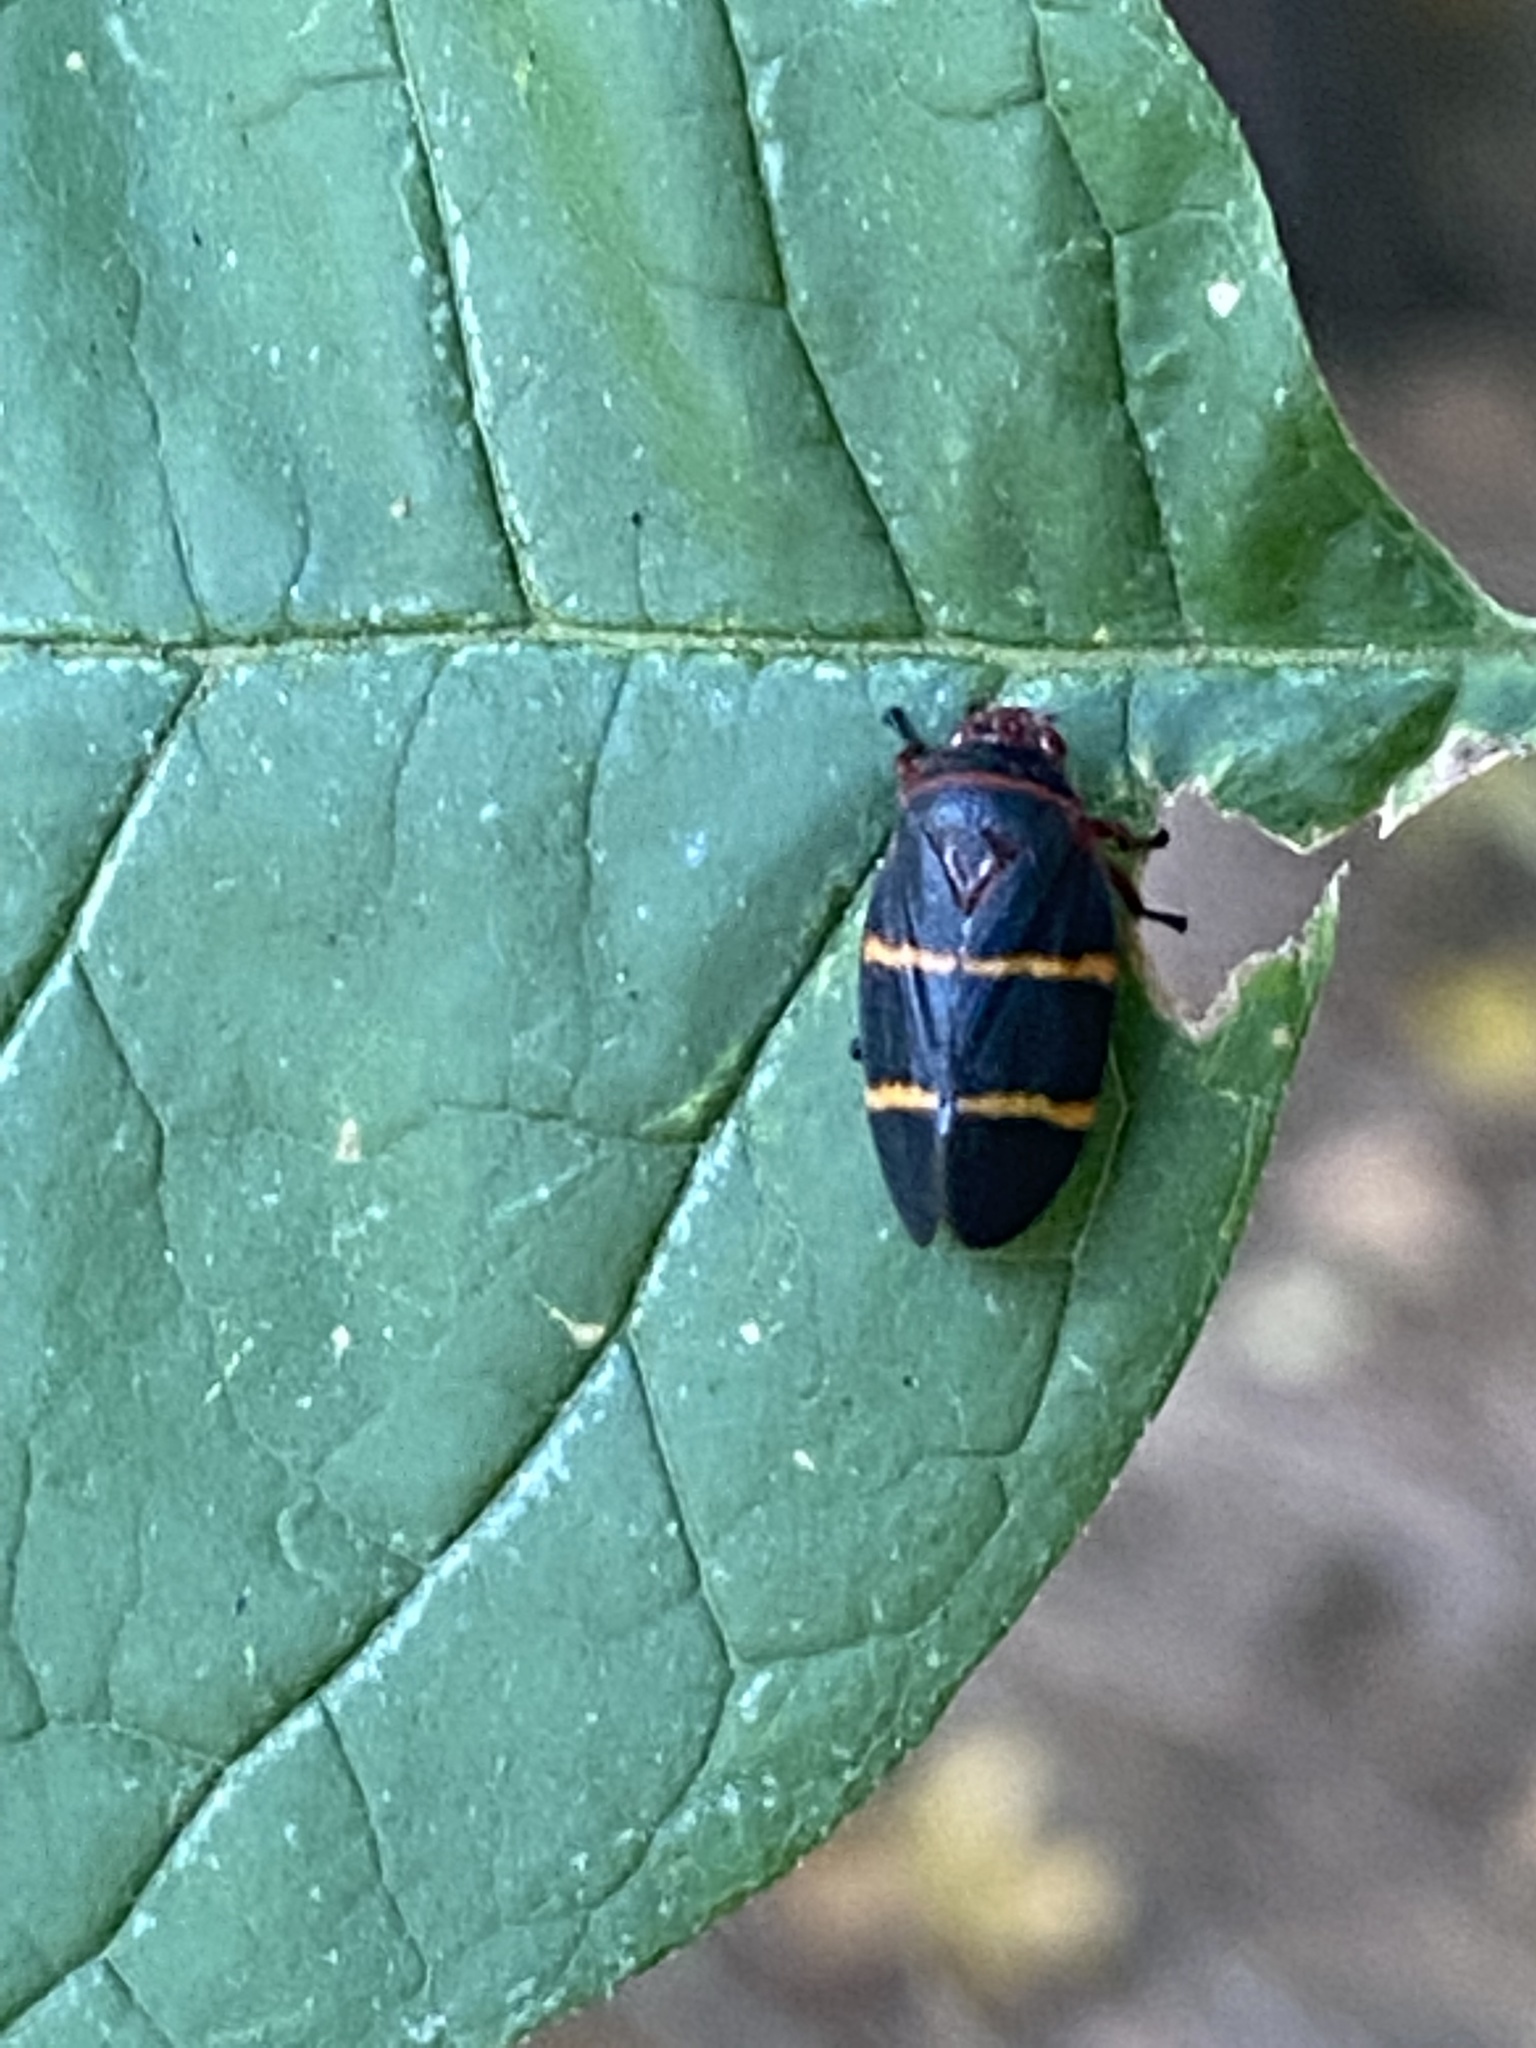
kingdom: Animalia
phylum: Arthropoda
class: Insecta
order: Hemiptera
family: Cercopidae
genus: Prosapia
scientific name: Prosapia bicincta
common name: Twolined spittlebug
